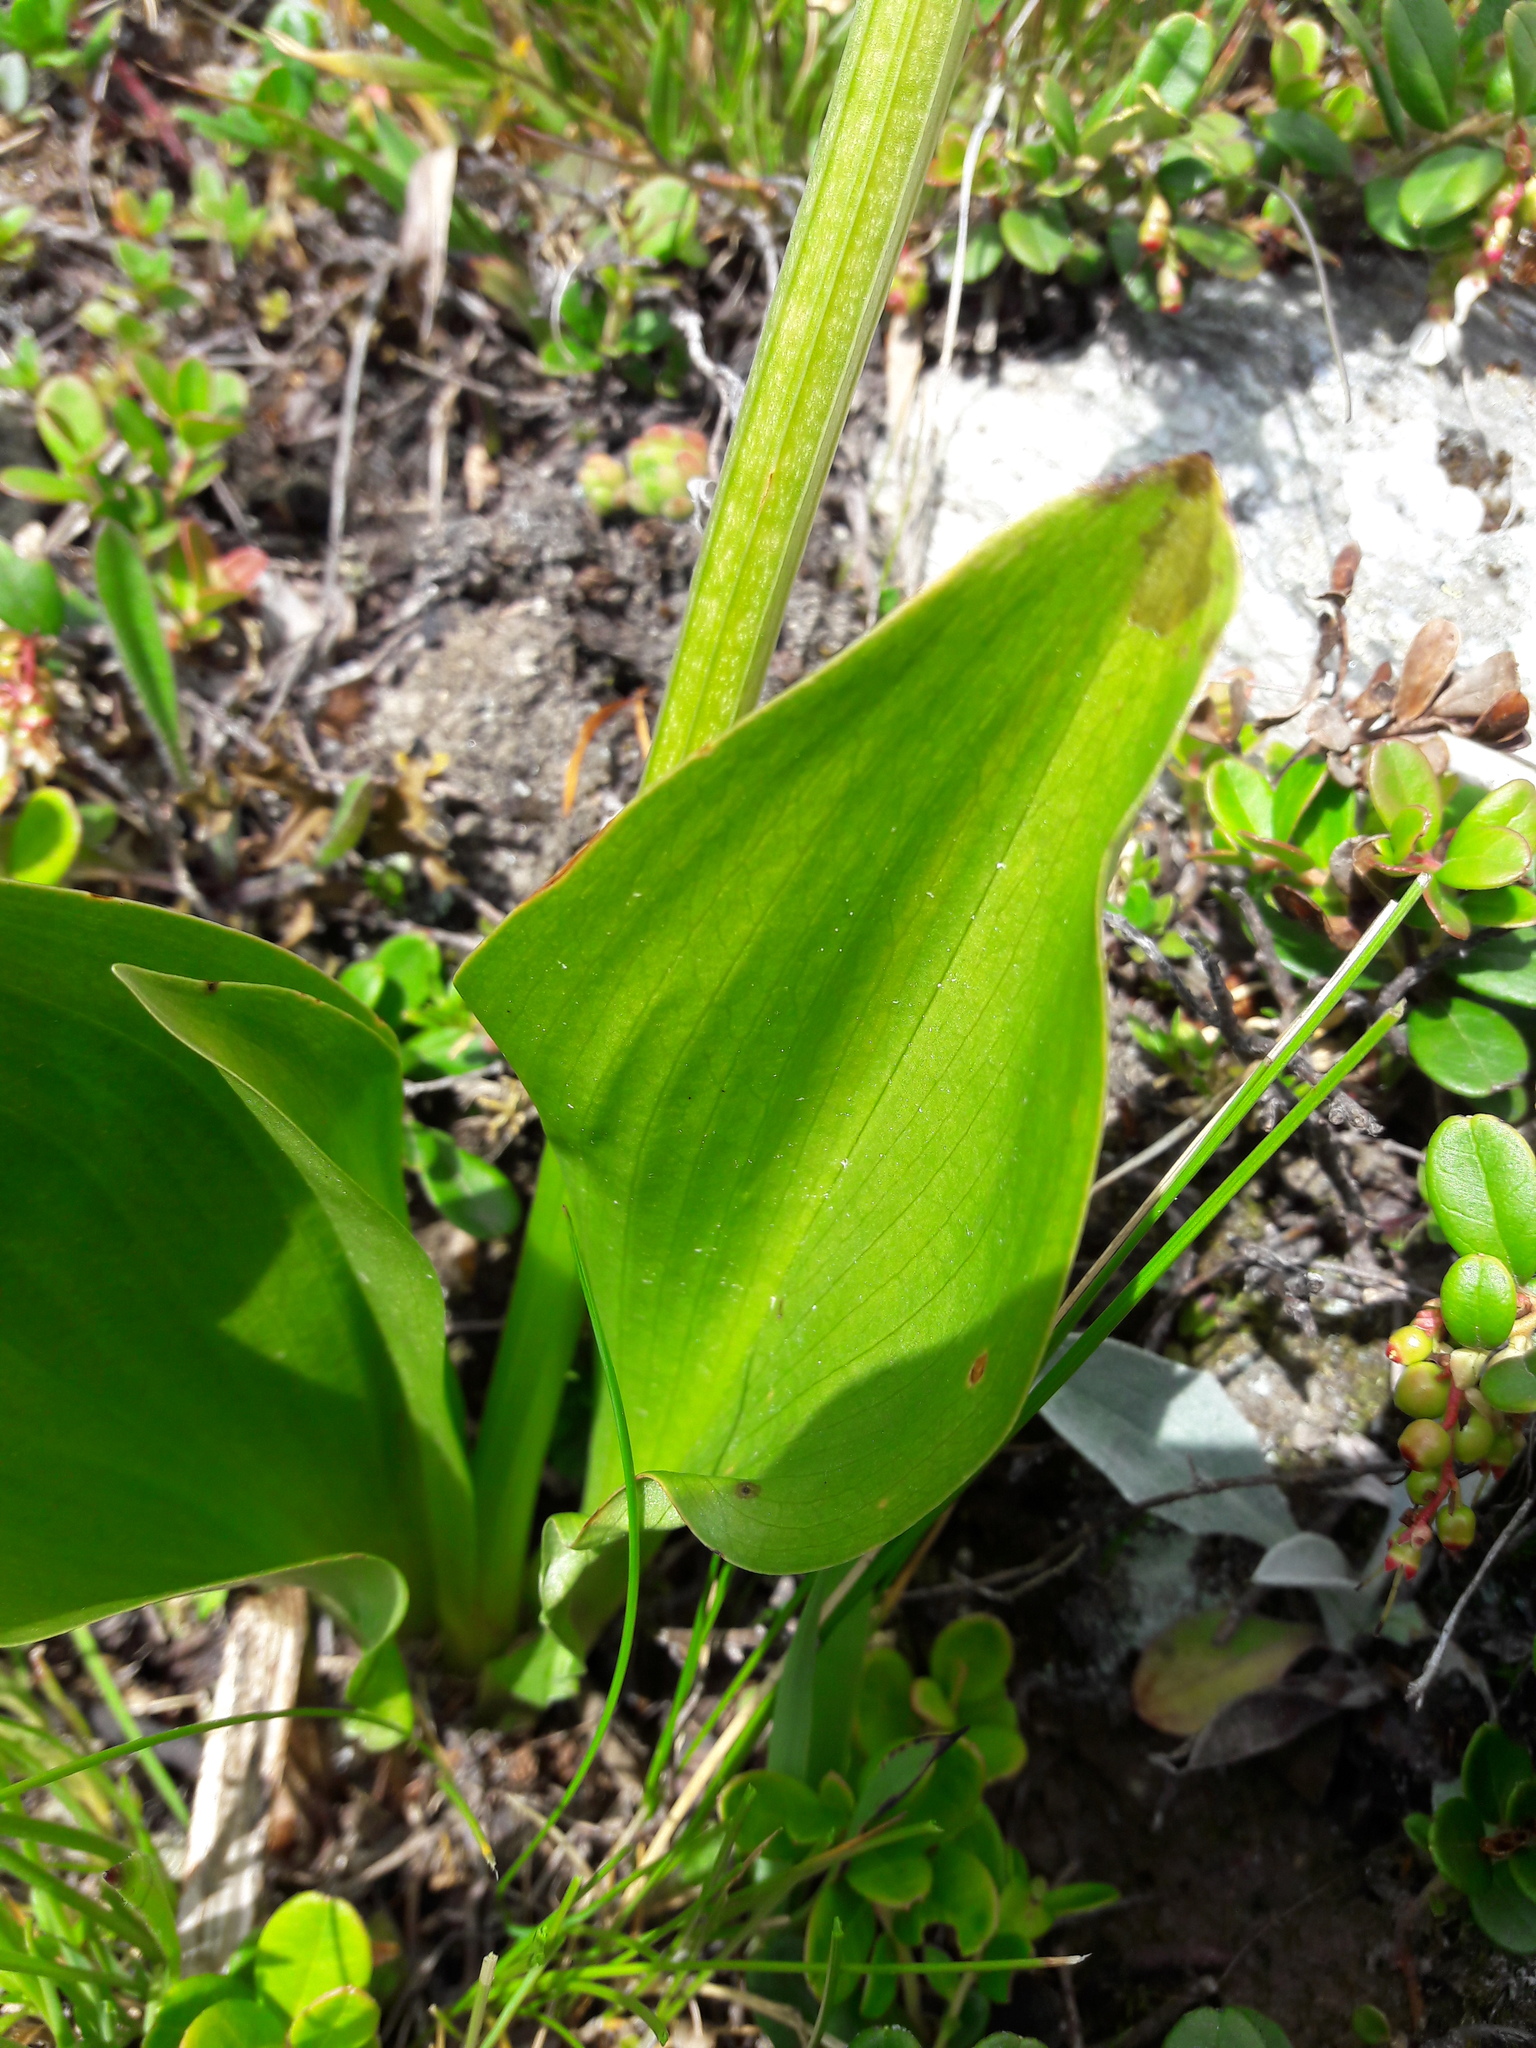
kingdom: Plantae
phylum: Tracheophyta
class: Liliopsida
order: Asparagales
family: Orchidaceae
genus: Platanthera
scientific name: Platanthera chlorantha
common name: Greater butterfly-orchid
